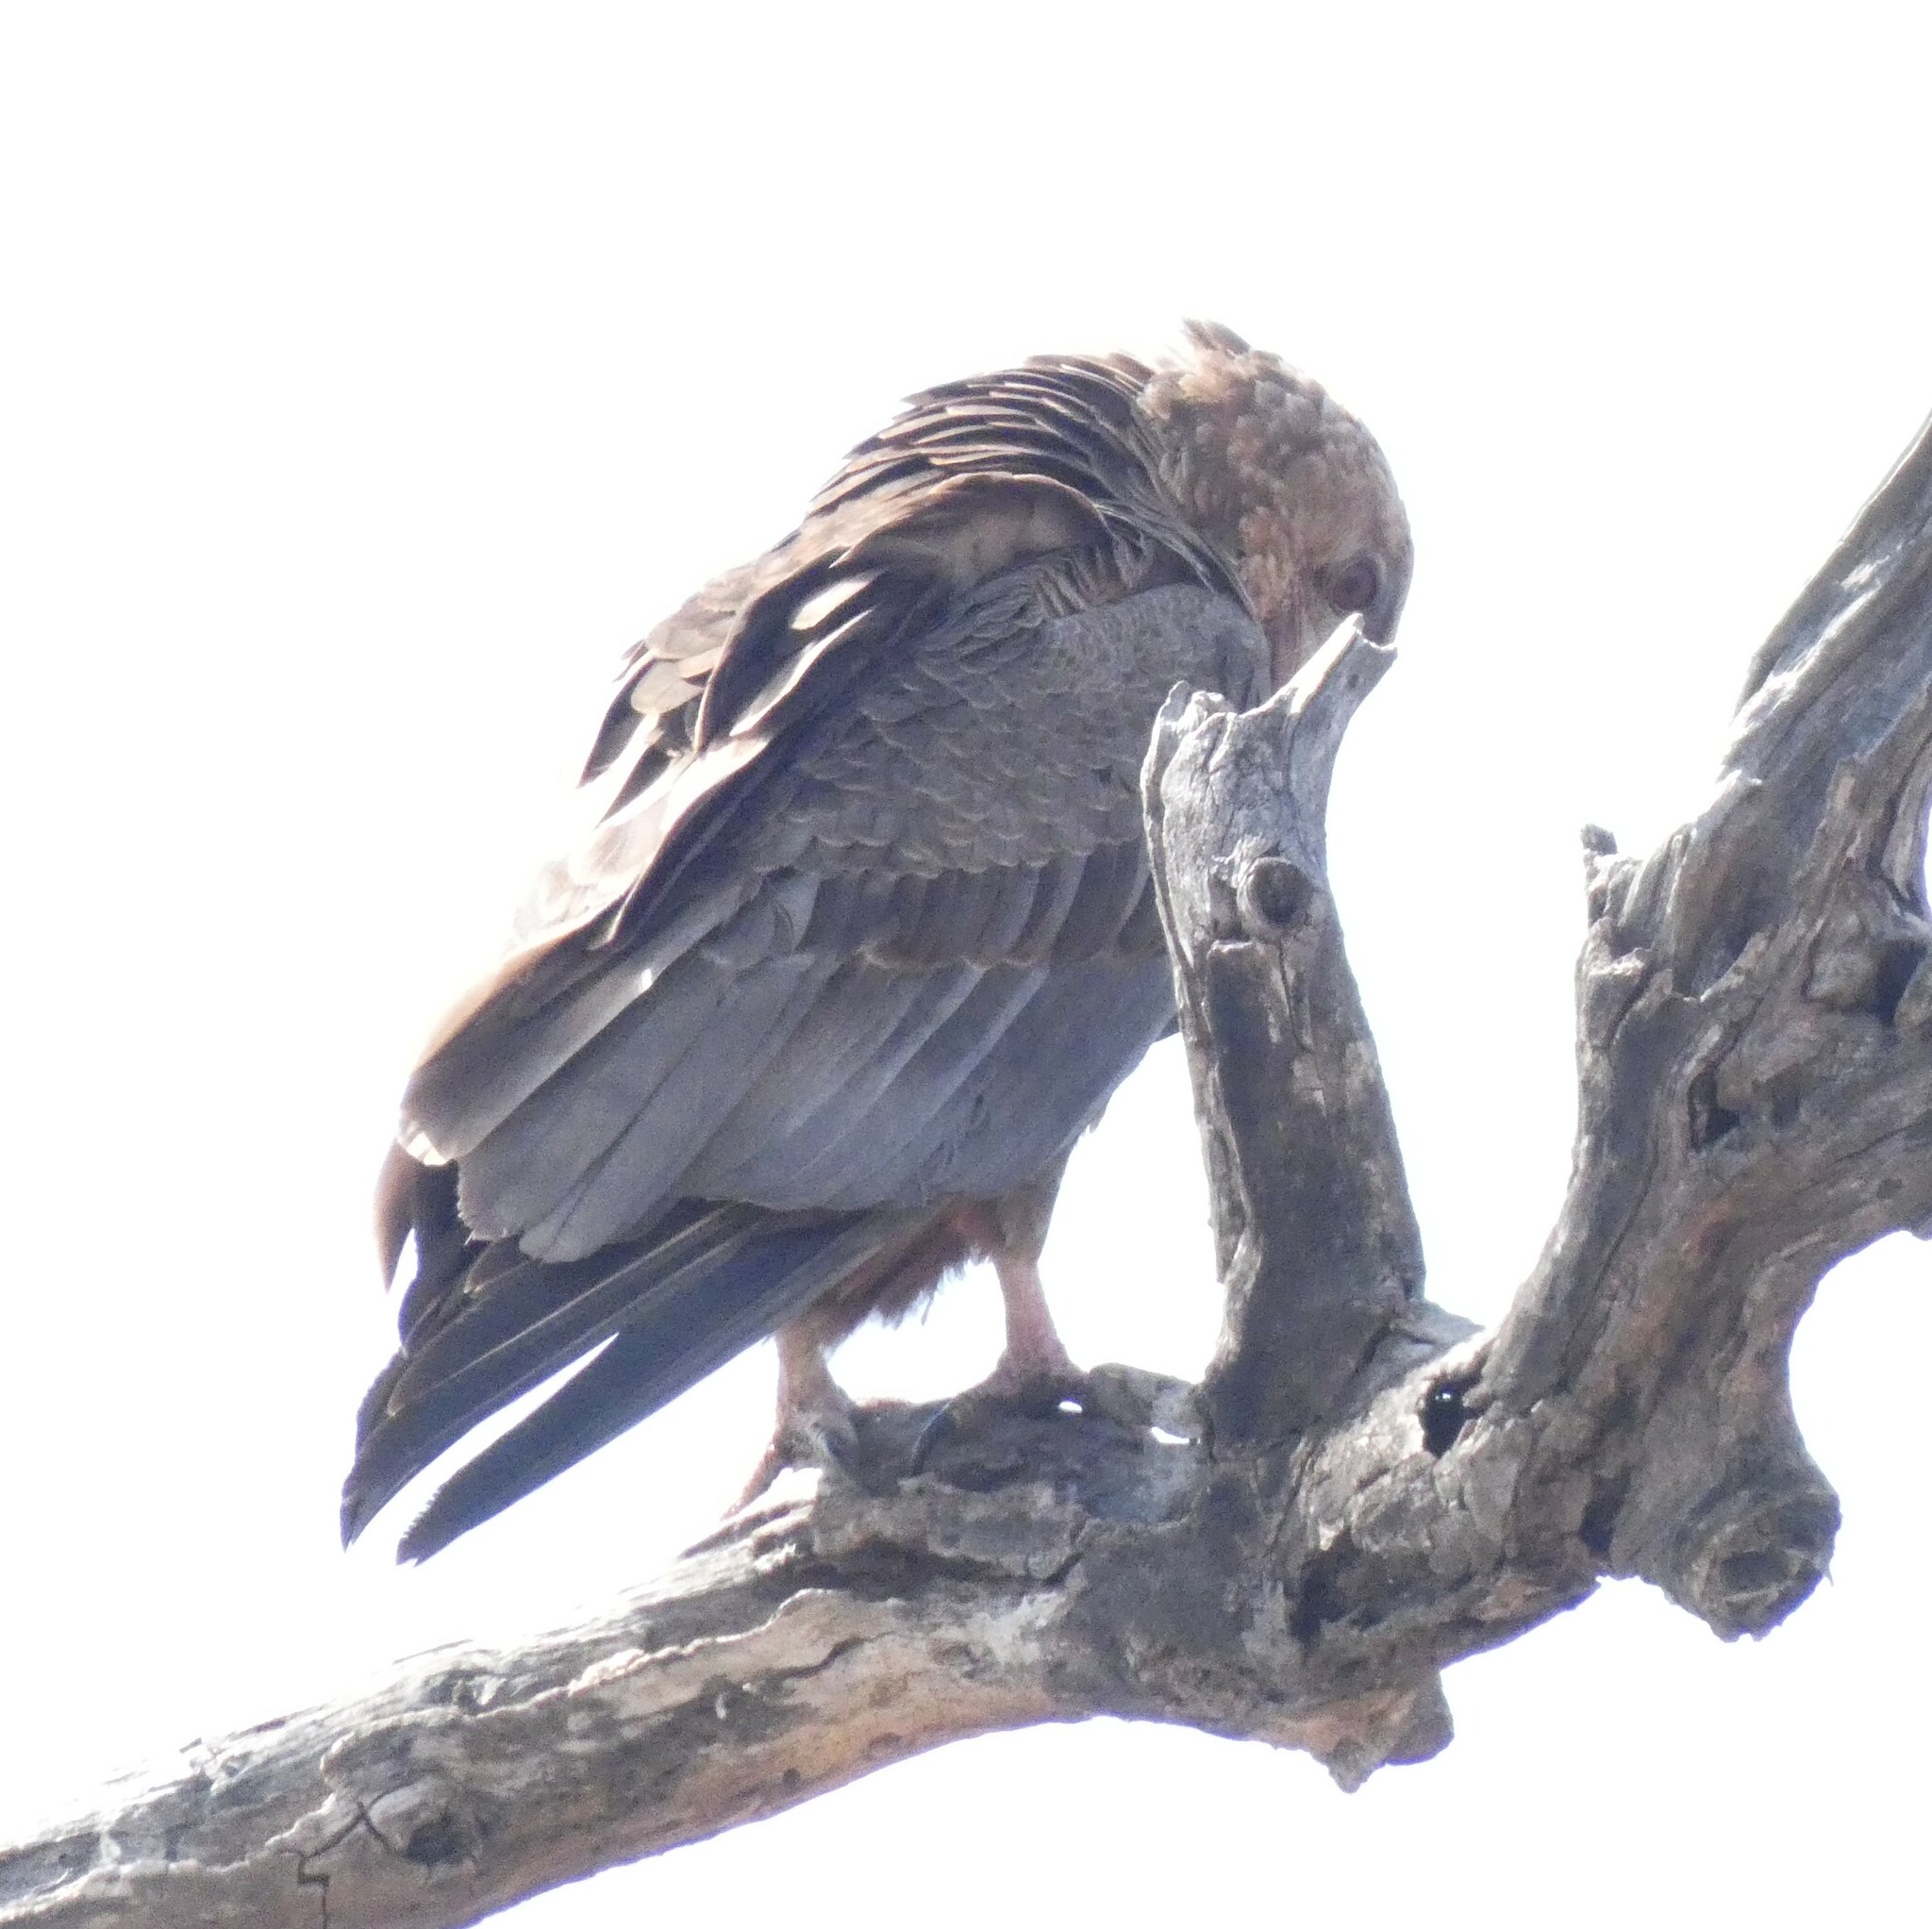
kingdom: Animalia
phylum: Chordata
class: Aves
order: Accipitriformes
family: Accipitridae
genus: Terathopius
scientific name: Terathopius ecaudatus
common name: Bateleur
